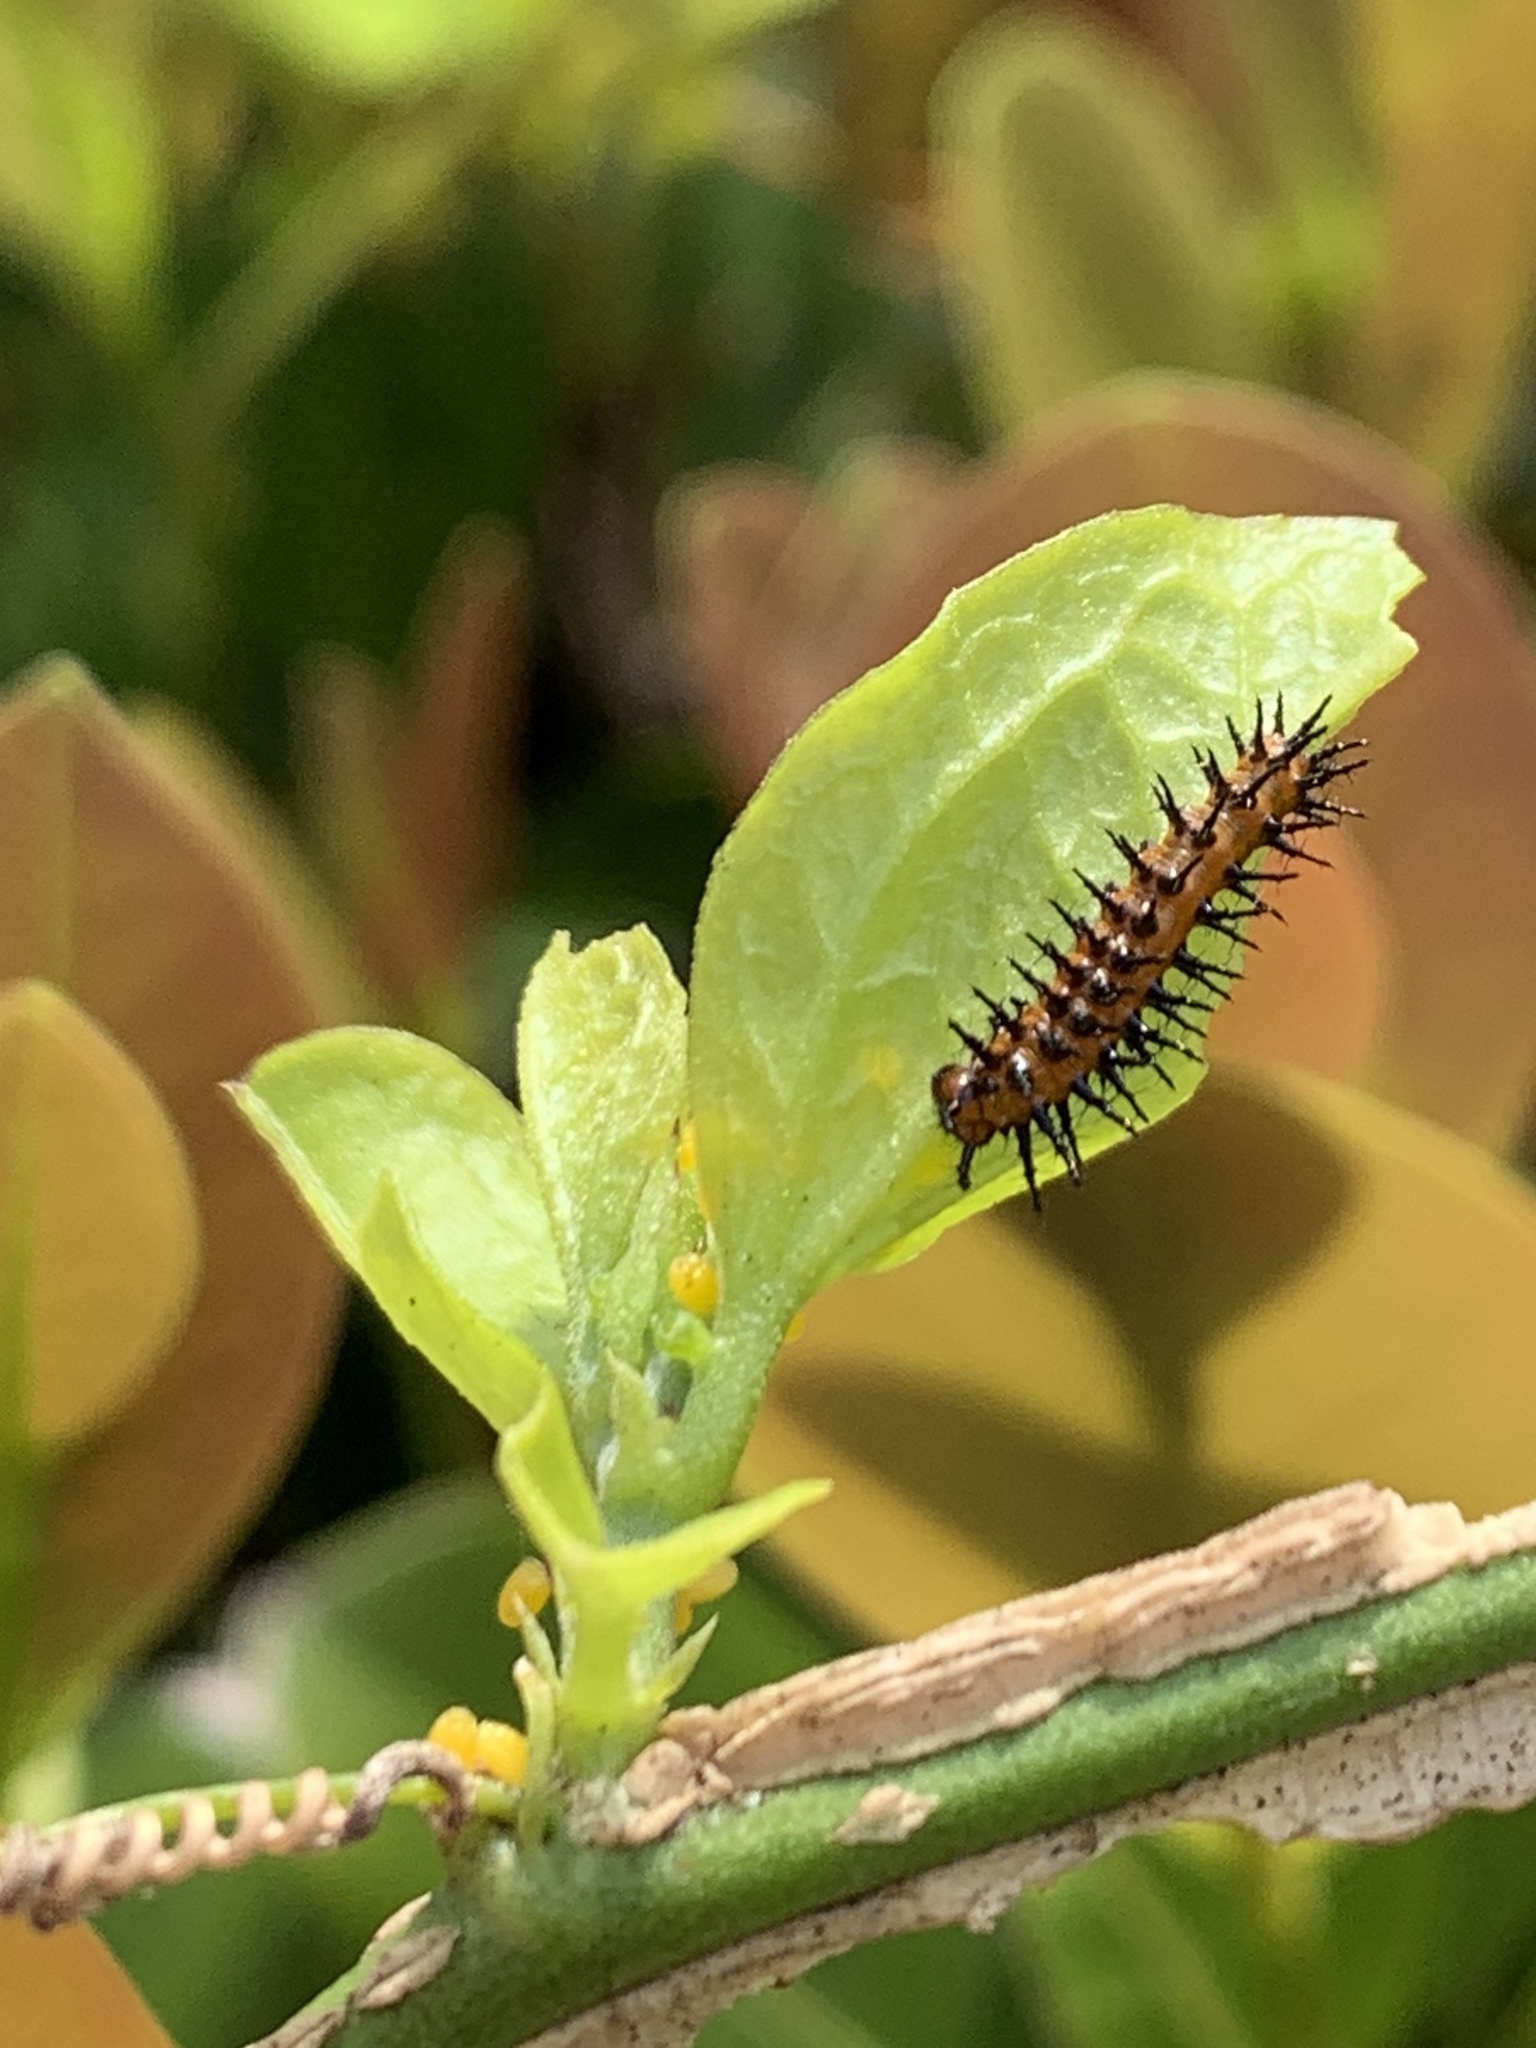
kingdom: Animalia
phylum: Arthropoda
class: Insecta
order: Lepidoptera
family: Nymphalidae
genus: Dione
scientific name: Dione vanillae
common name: Gulf fritillary
